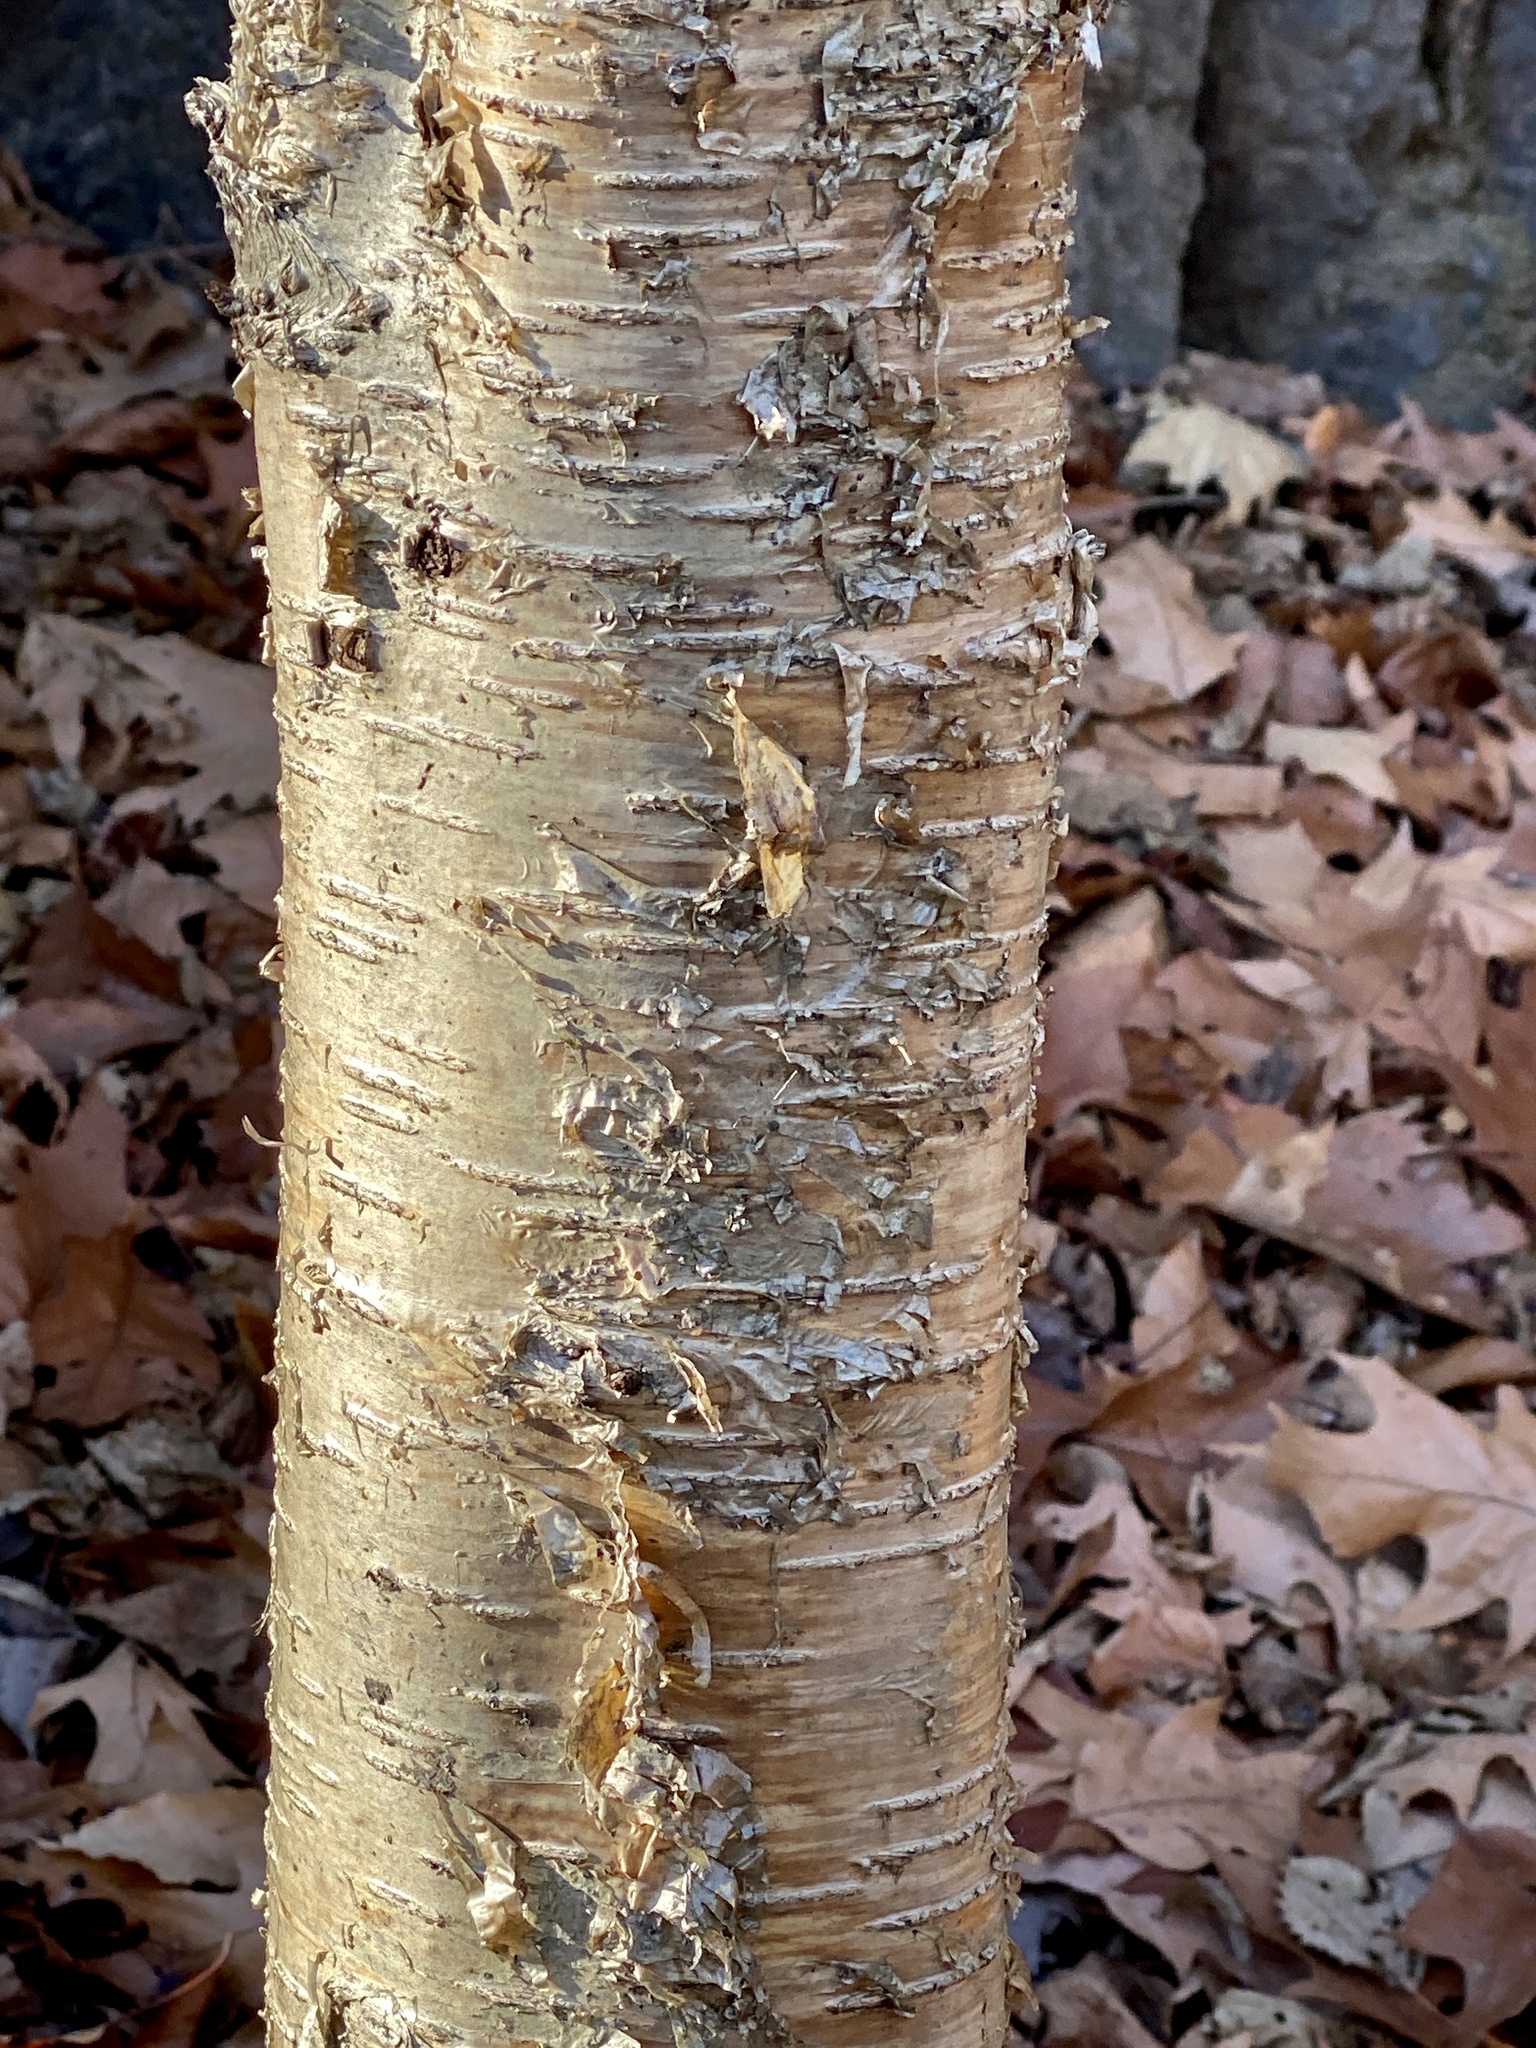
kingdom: Plantae
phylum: Tracheophyta
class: Magnoliopsida
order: Fagales
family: Betulaceae
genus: Betula
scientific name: Betula alleghaniensis
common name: Yellow birch
